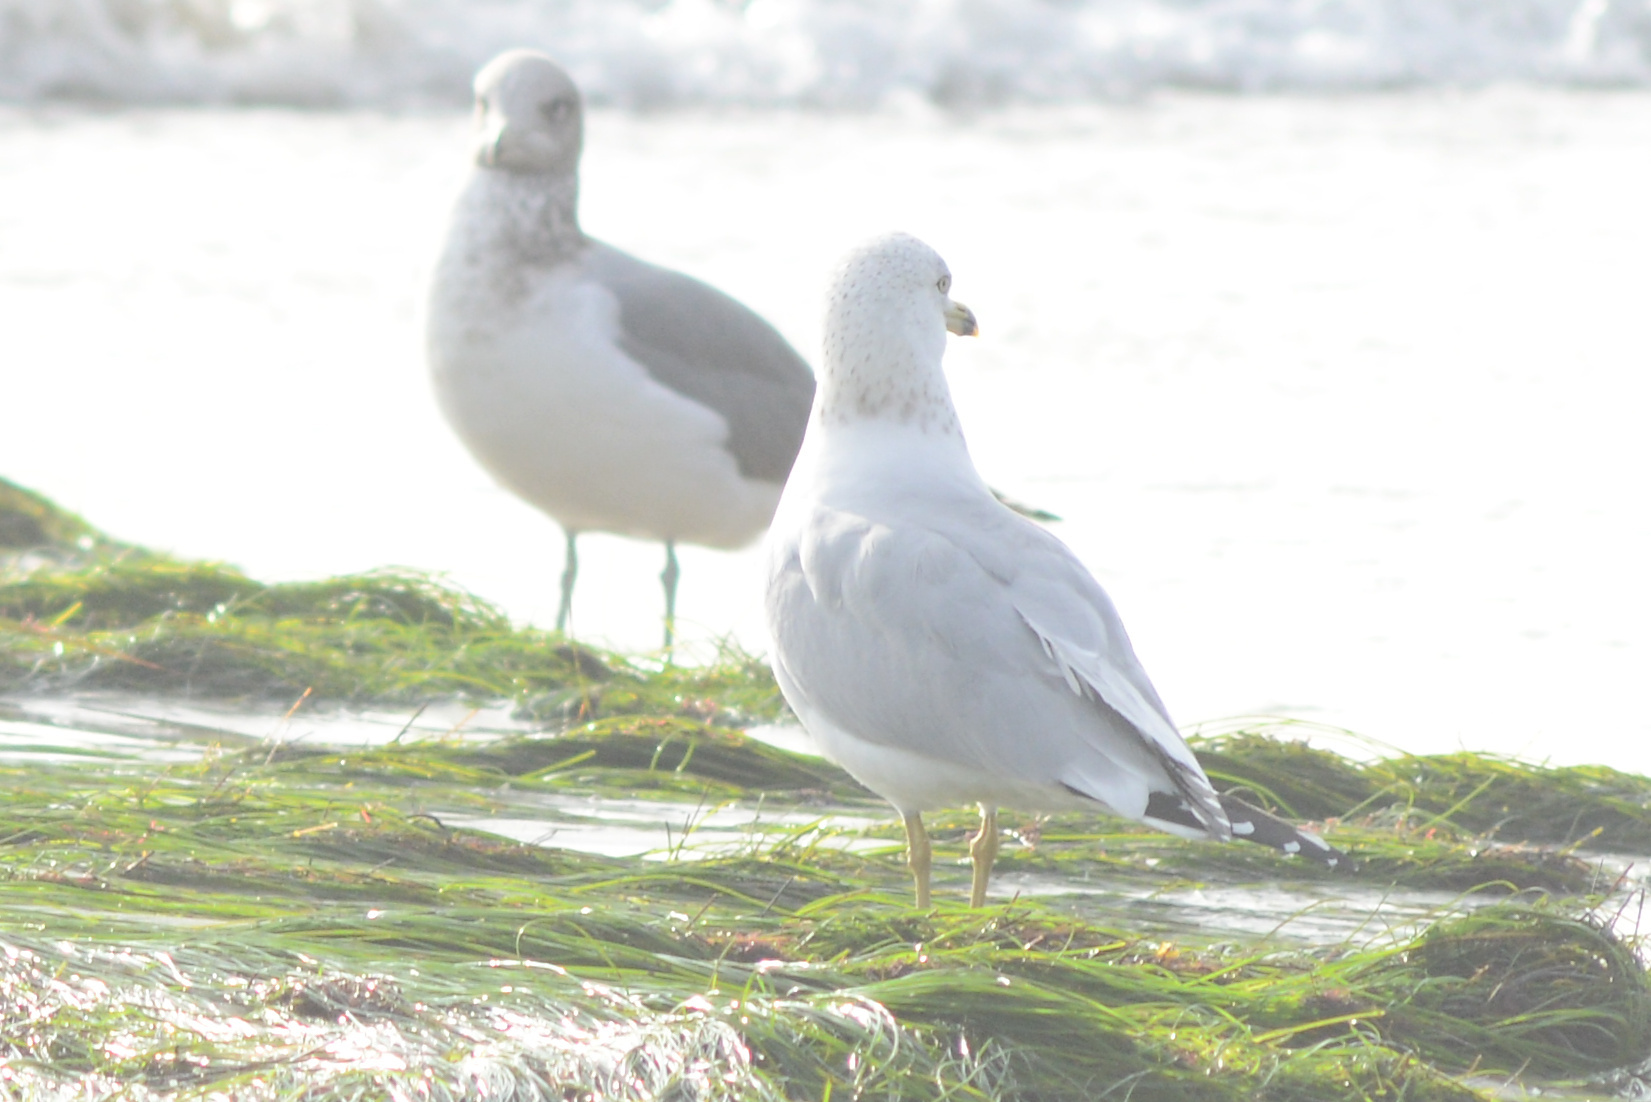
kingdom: Animalia
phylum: Chordata
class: Aves
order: Charadriiformes
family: Laridae
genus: Larus
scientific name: Larus delawarensis
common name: Ring-billed gull
